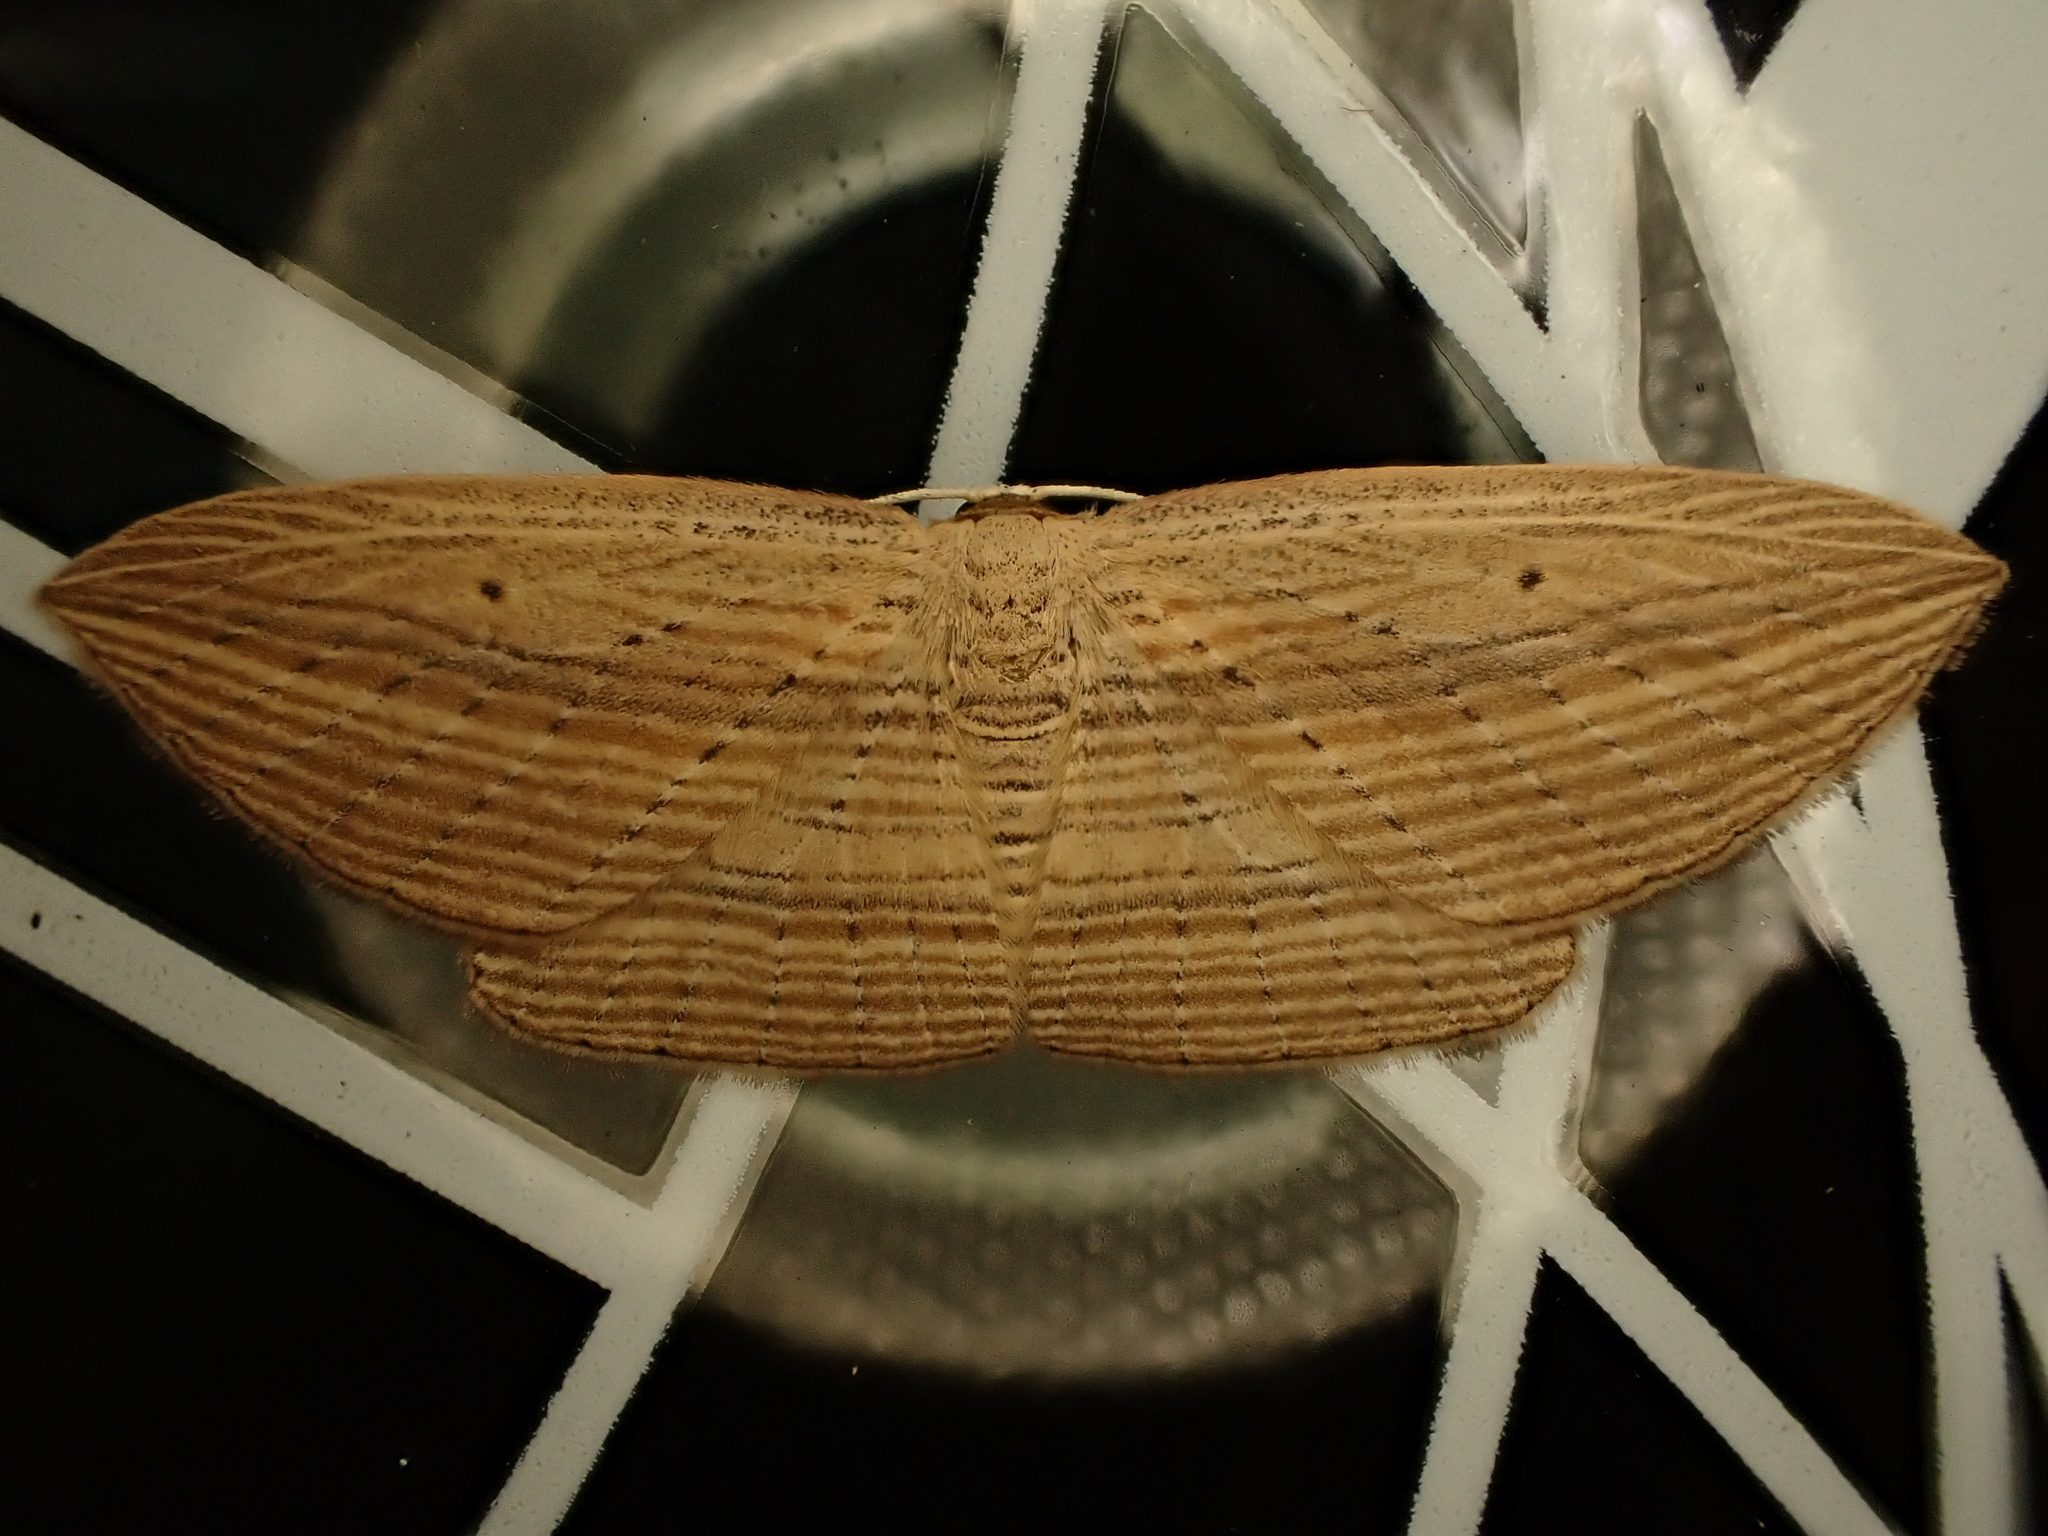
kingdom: Animalia
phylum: Arthropoda
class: Insecta
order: Lepidoptera
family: Geometridae
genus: Epiphryne
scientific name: Epiphryne verriculata
